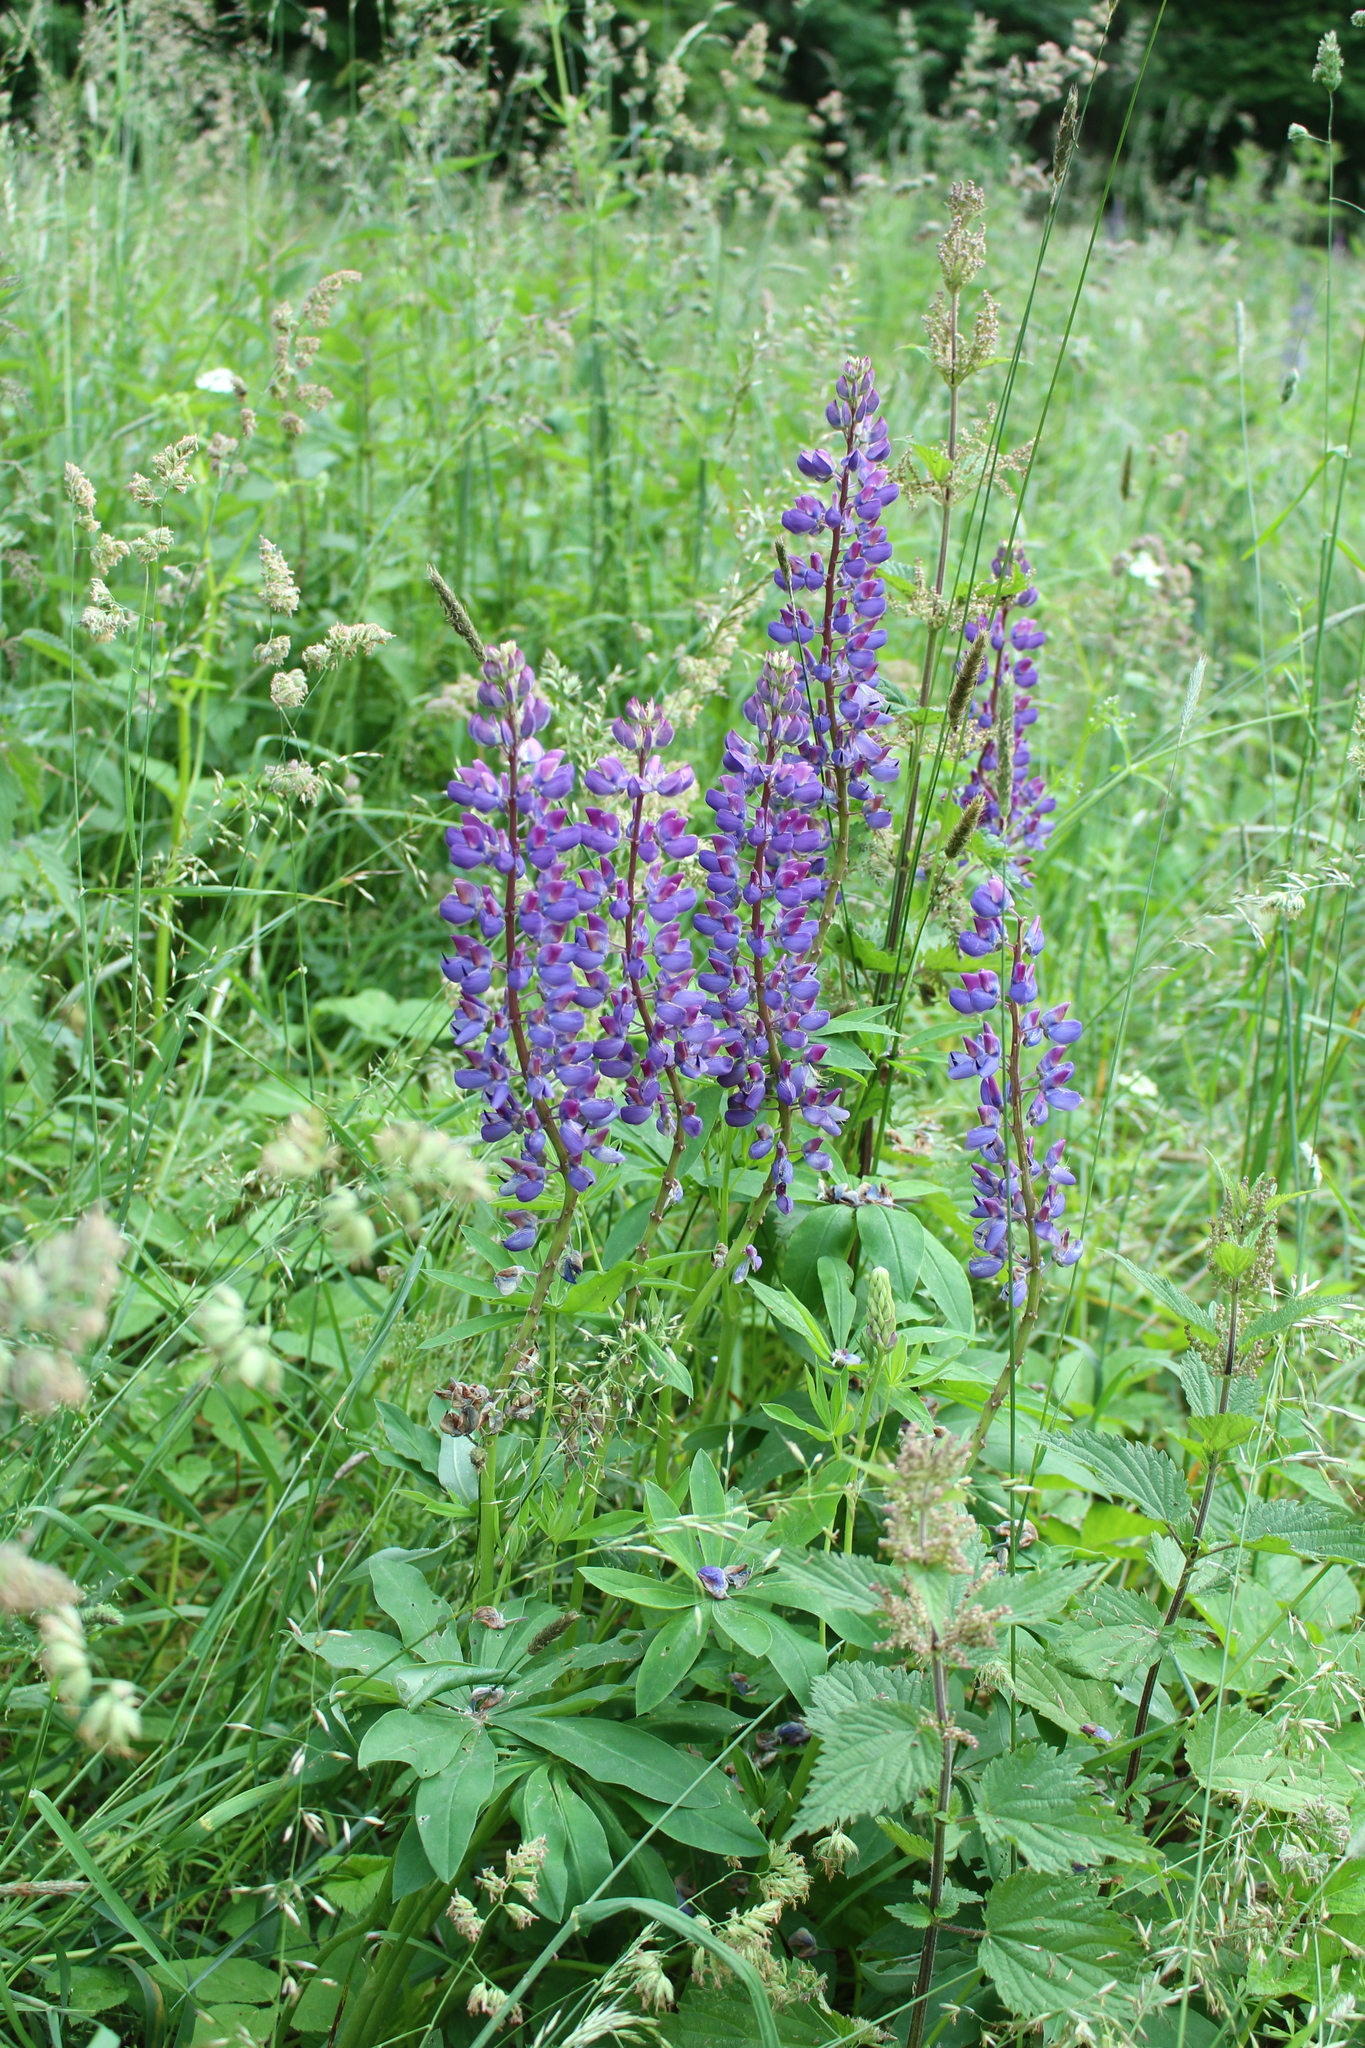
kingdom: Plantae
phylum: Tracheophyta
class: Magnoliopsida
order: Fabales
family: Fabaceae
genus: Lupinus
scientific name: Lupinus polyphyllus
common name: Garden lupin
